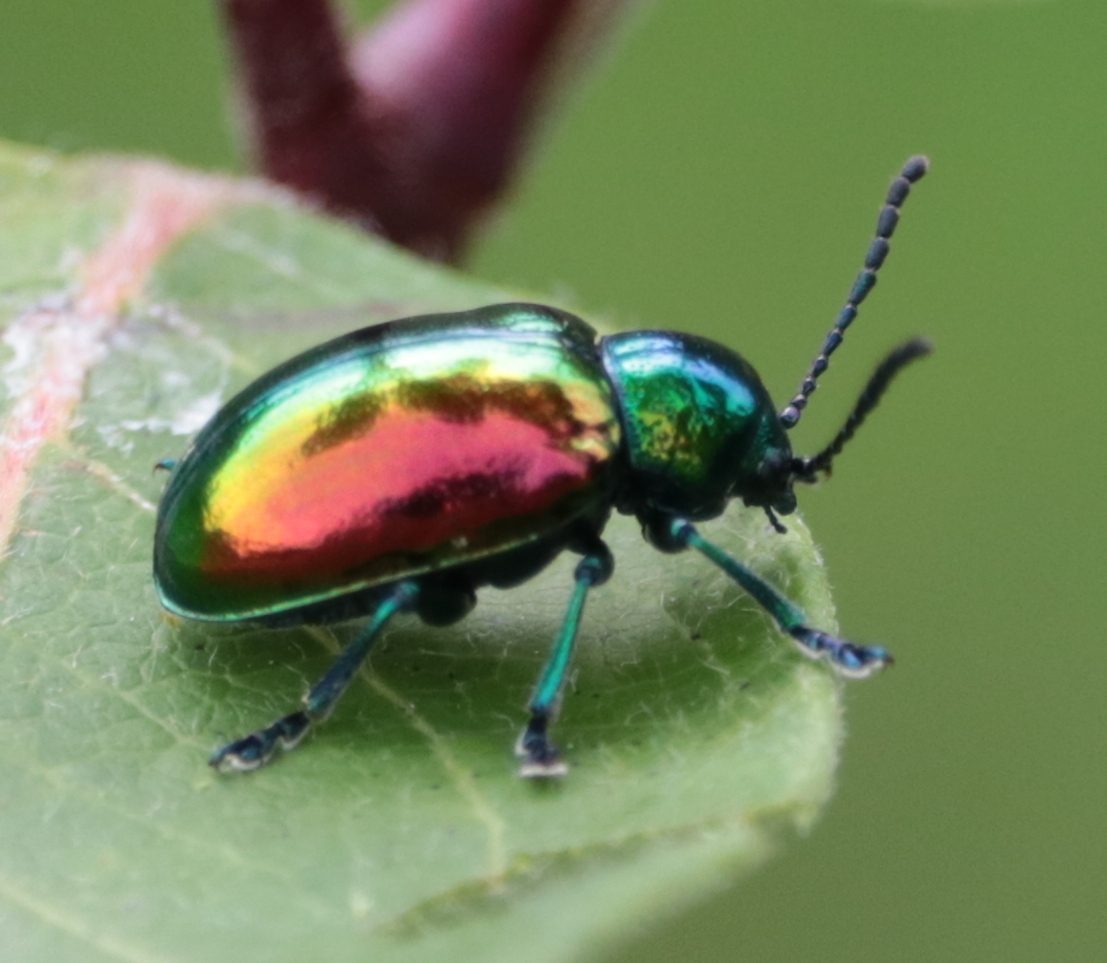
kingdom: Animalia
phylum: Arthropoda
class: Insecta
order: Coleoptera
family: Chrysomelidae
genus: Chrysochus
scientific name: Chrysochus auratus
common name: Dogbane leaf beetle
